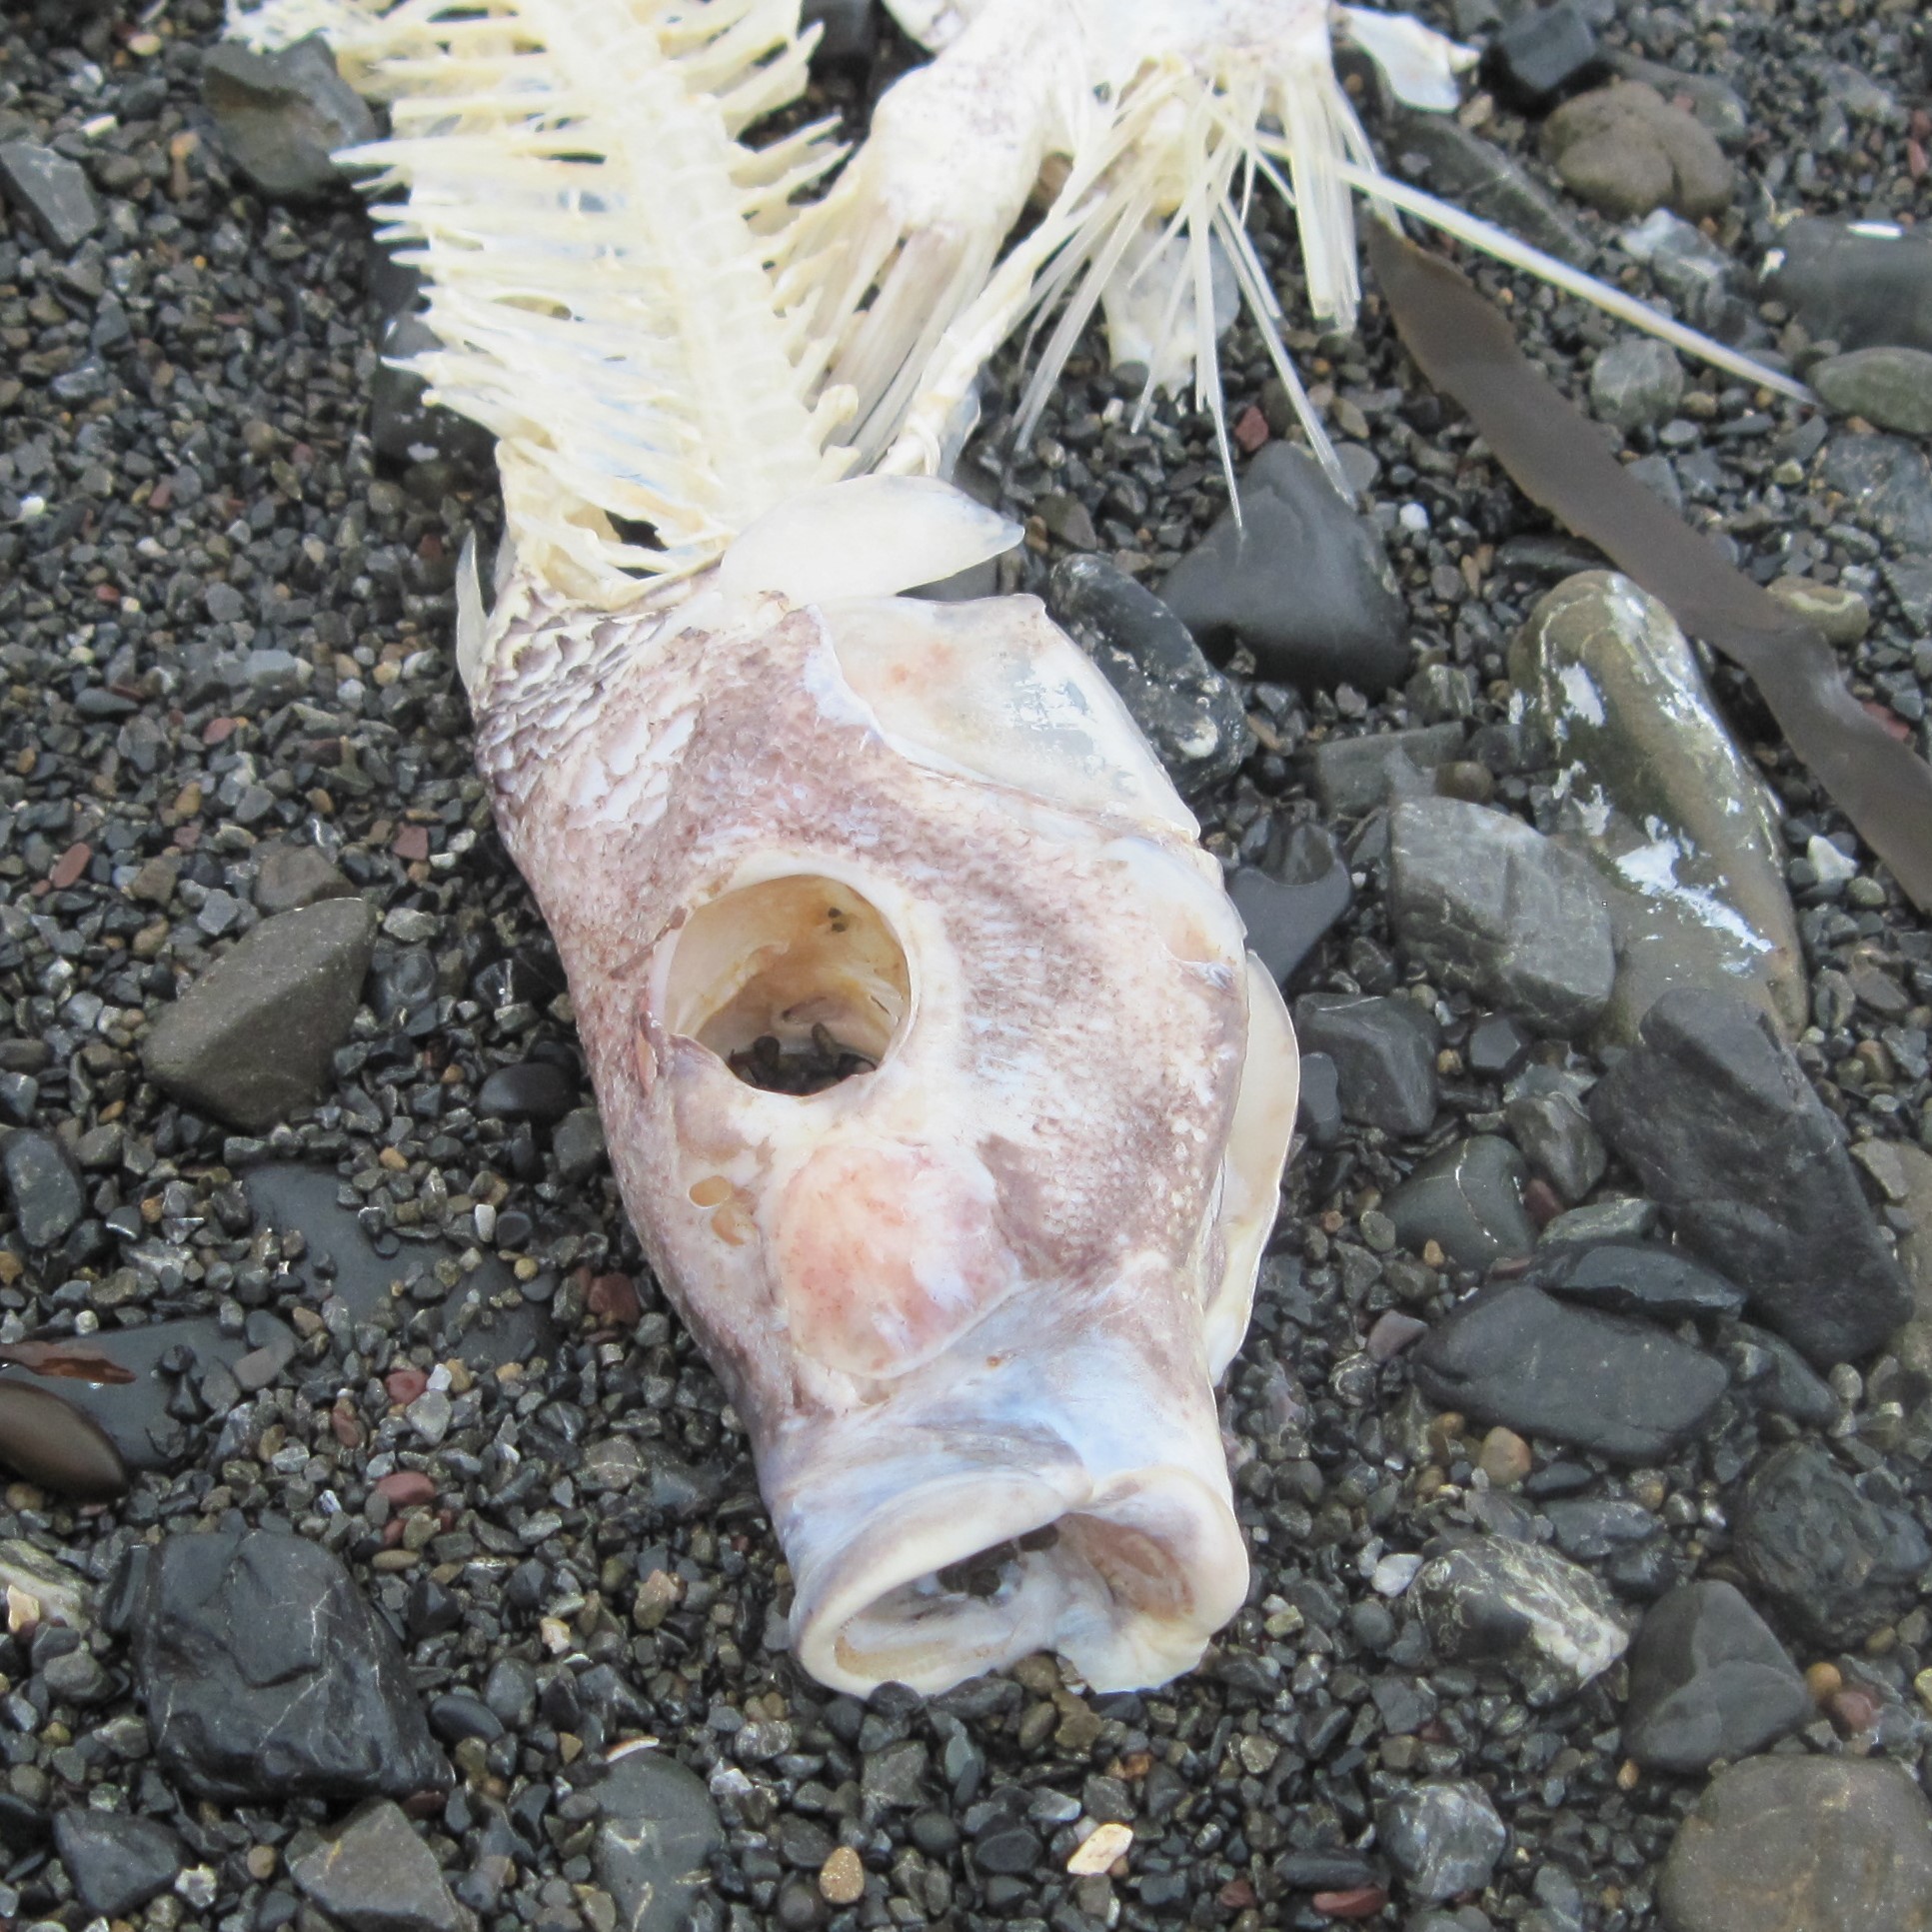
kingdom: Animalia
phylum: Chordata
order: Perciformes
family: Cheilodactylidae
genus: Nemadactylus
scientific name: Nemadactylus macropterus
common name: Tarakihi
